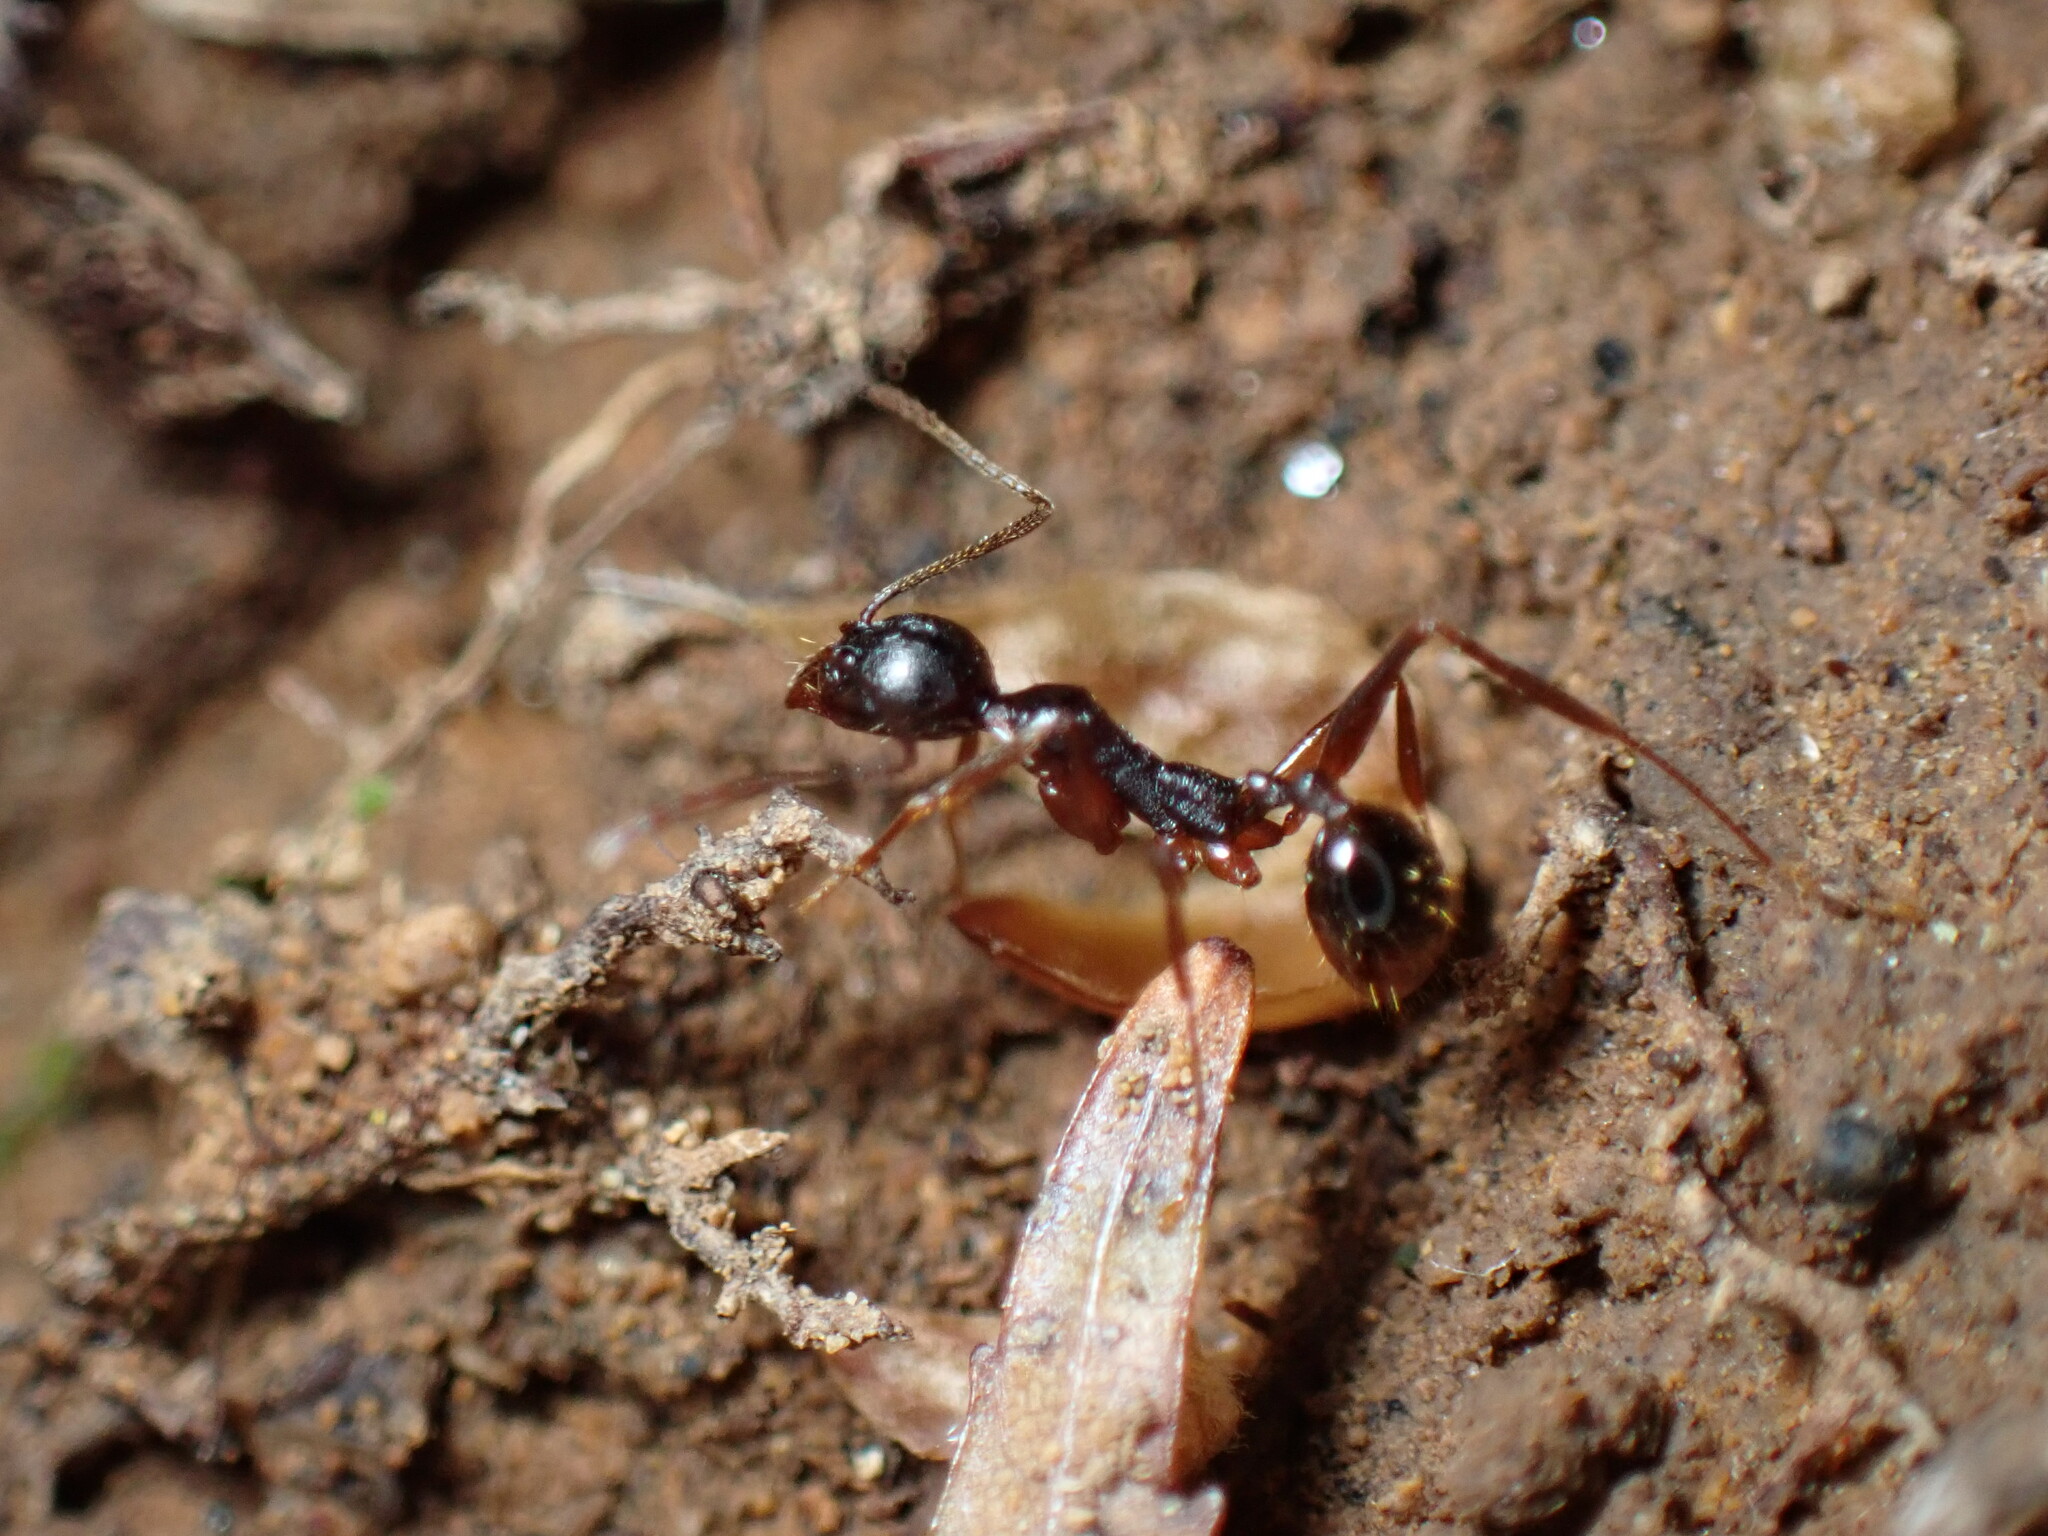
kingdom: Animalia
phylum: Arthropoda
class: Insecta
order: Hymenoptera
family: Formicidae
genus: Aphaenogaster
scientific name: Aphaenogaster famelica
